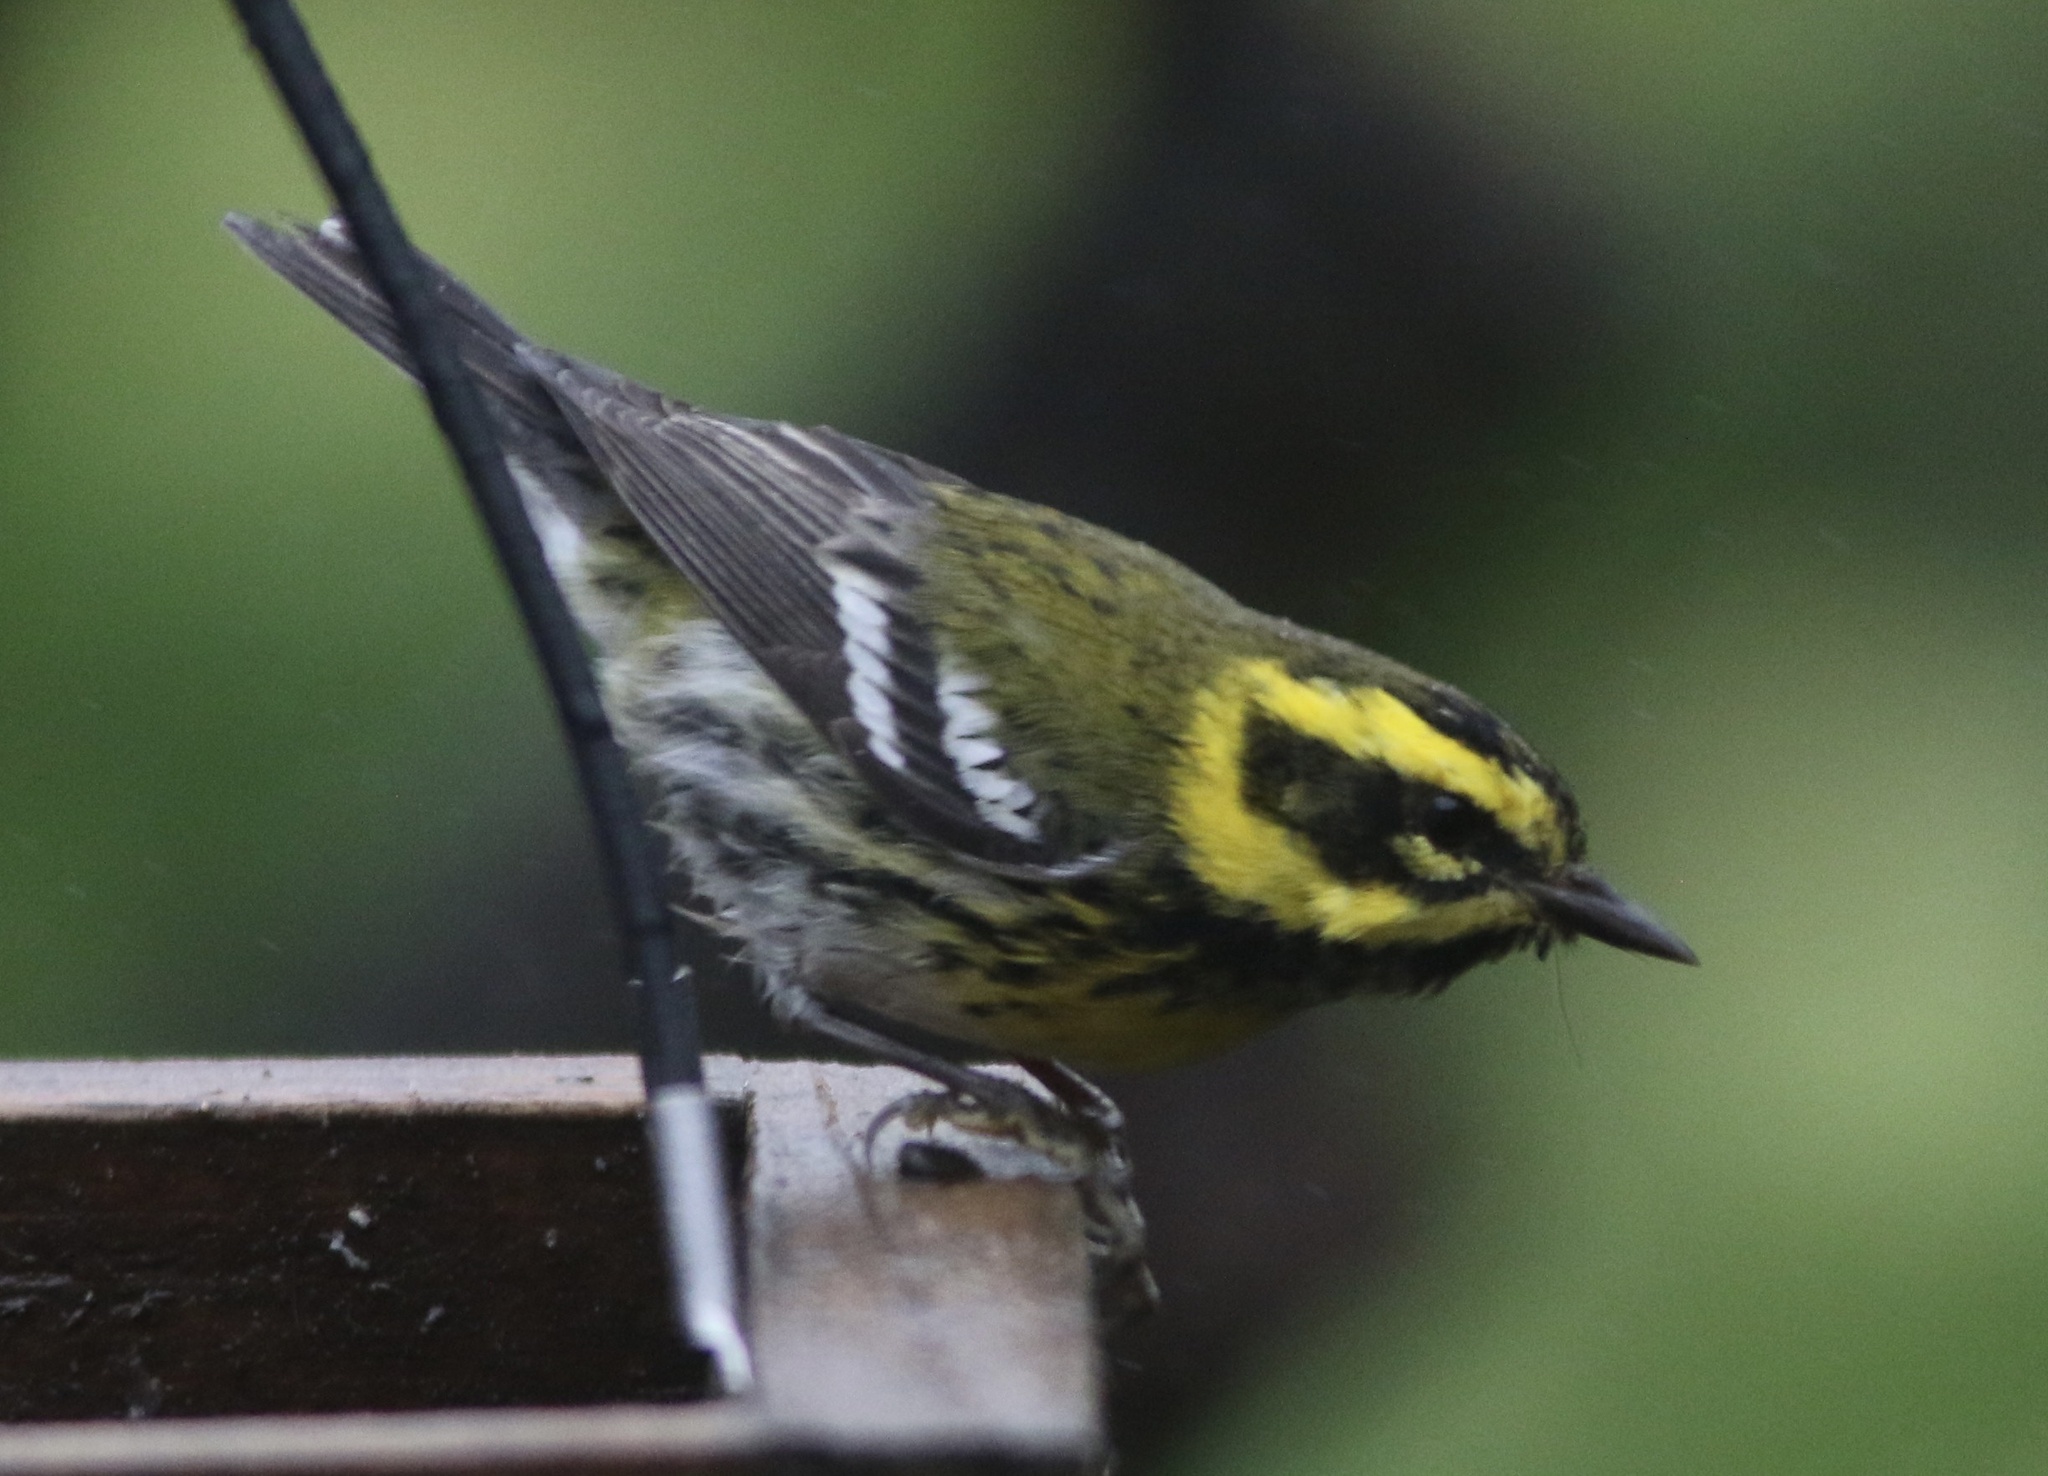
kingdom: Animalia
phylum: Chordata
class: Aves
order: Passeriformes
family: Parulidae
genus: Setophaga
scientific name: Setophaga townsendi
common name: Townsend's warbler
